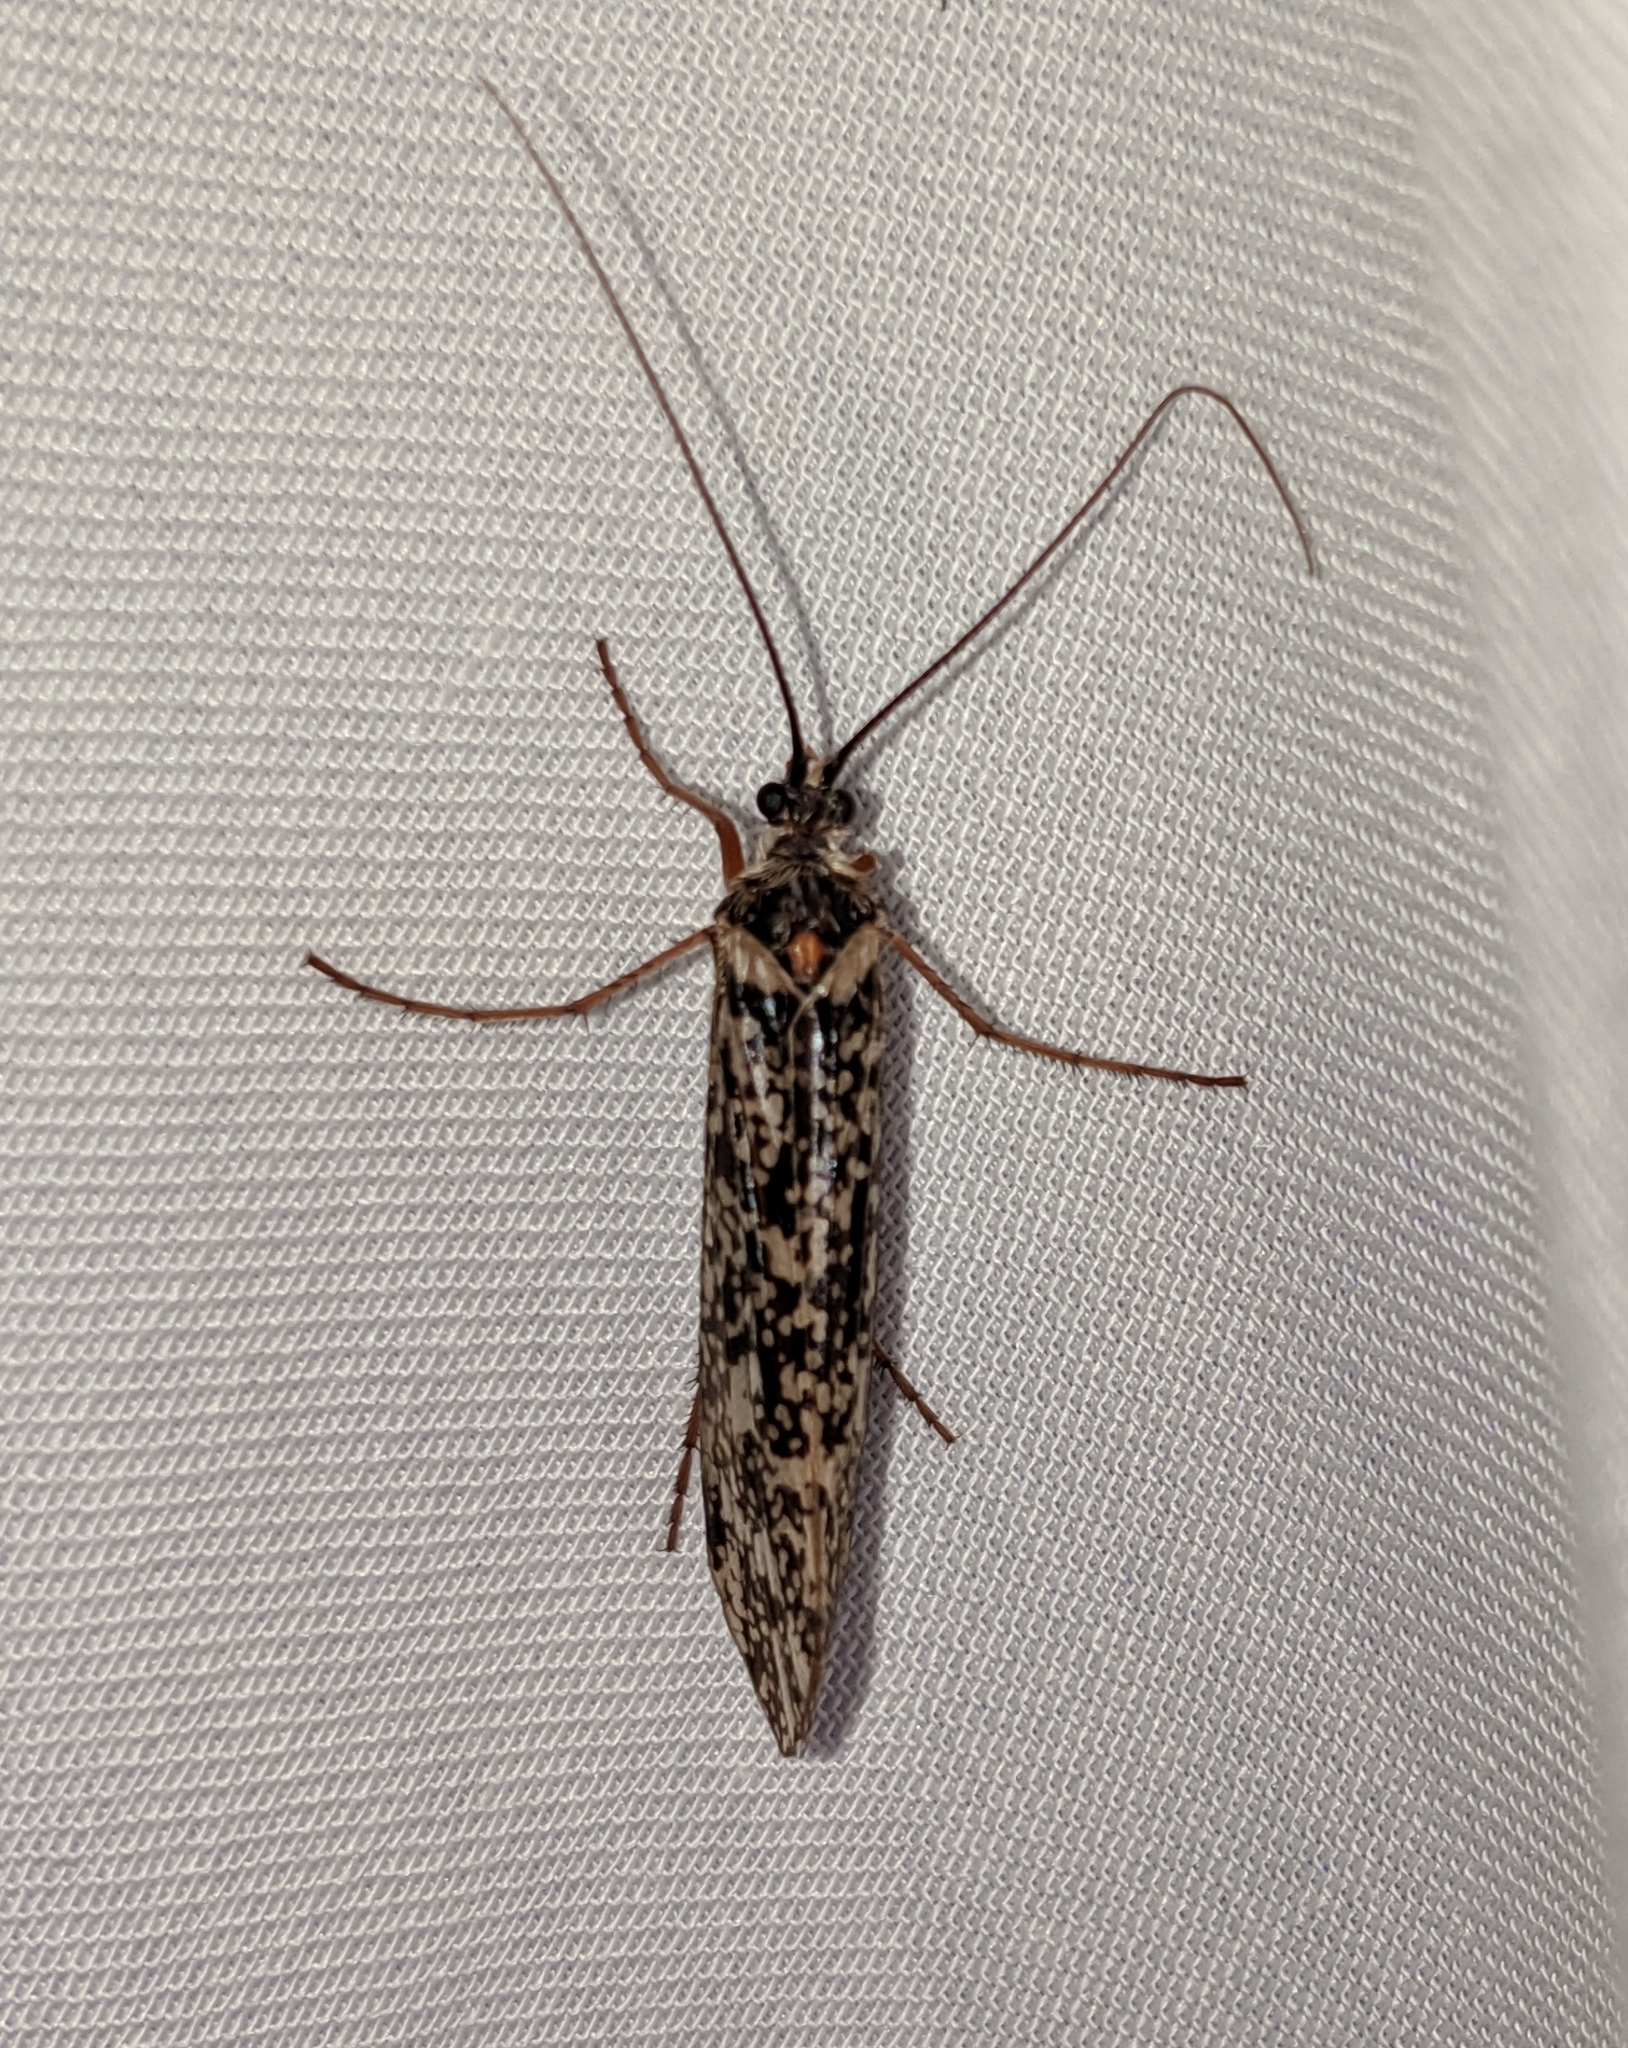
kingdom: Animalia
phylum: Arthropoda
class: Insecta
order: Trichoptera
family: Limnephilidae
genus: Clistoronia
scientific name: Clistoronia magnifica
